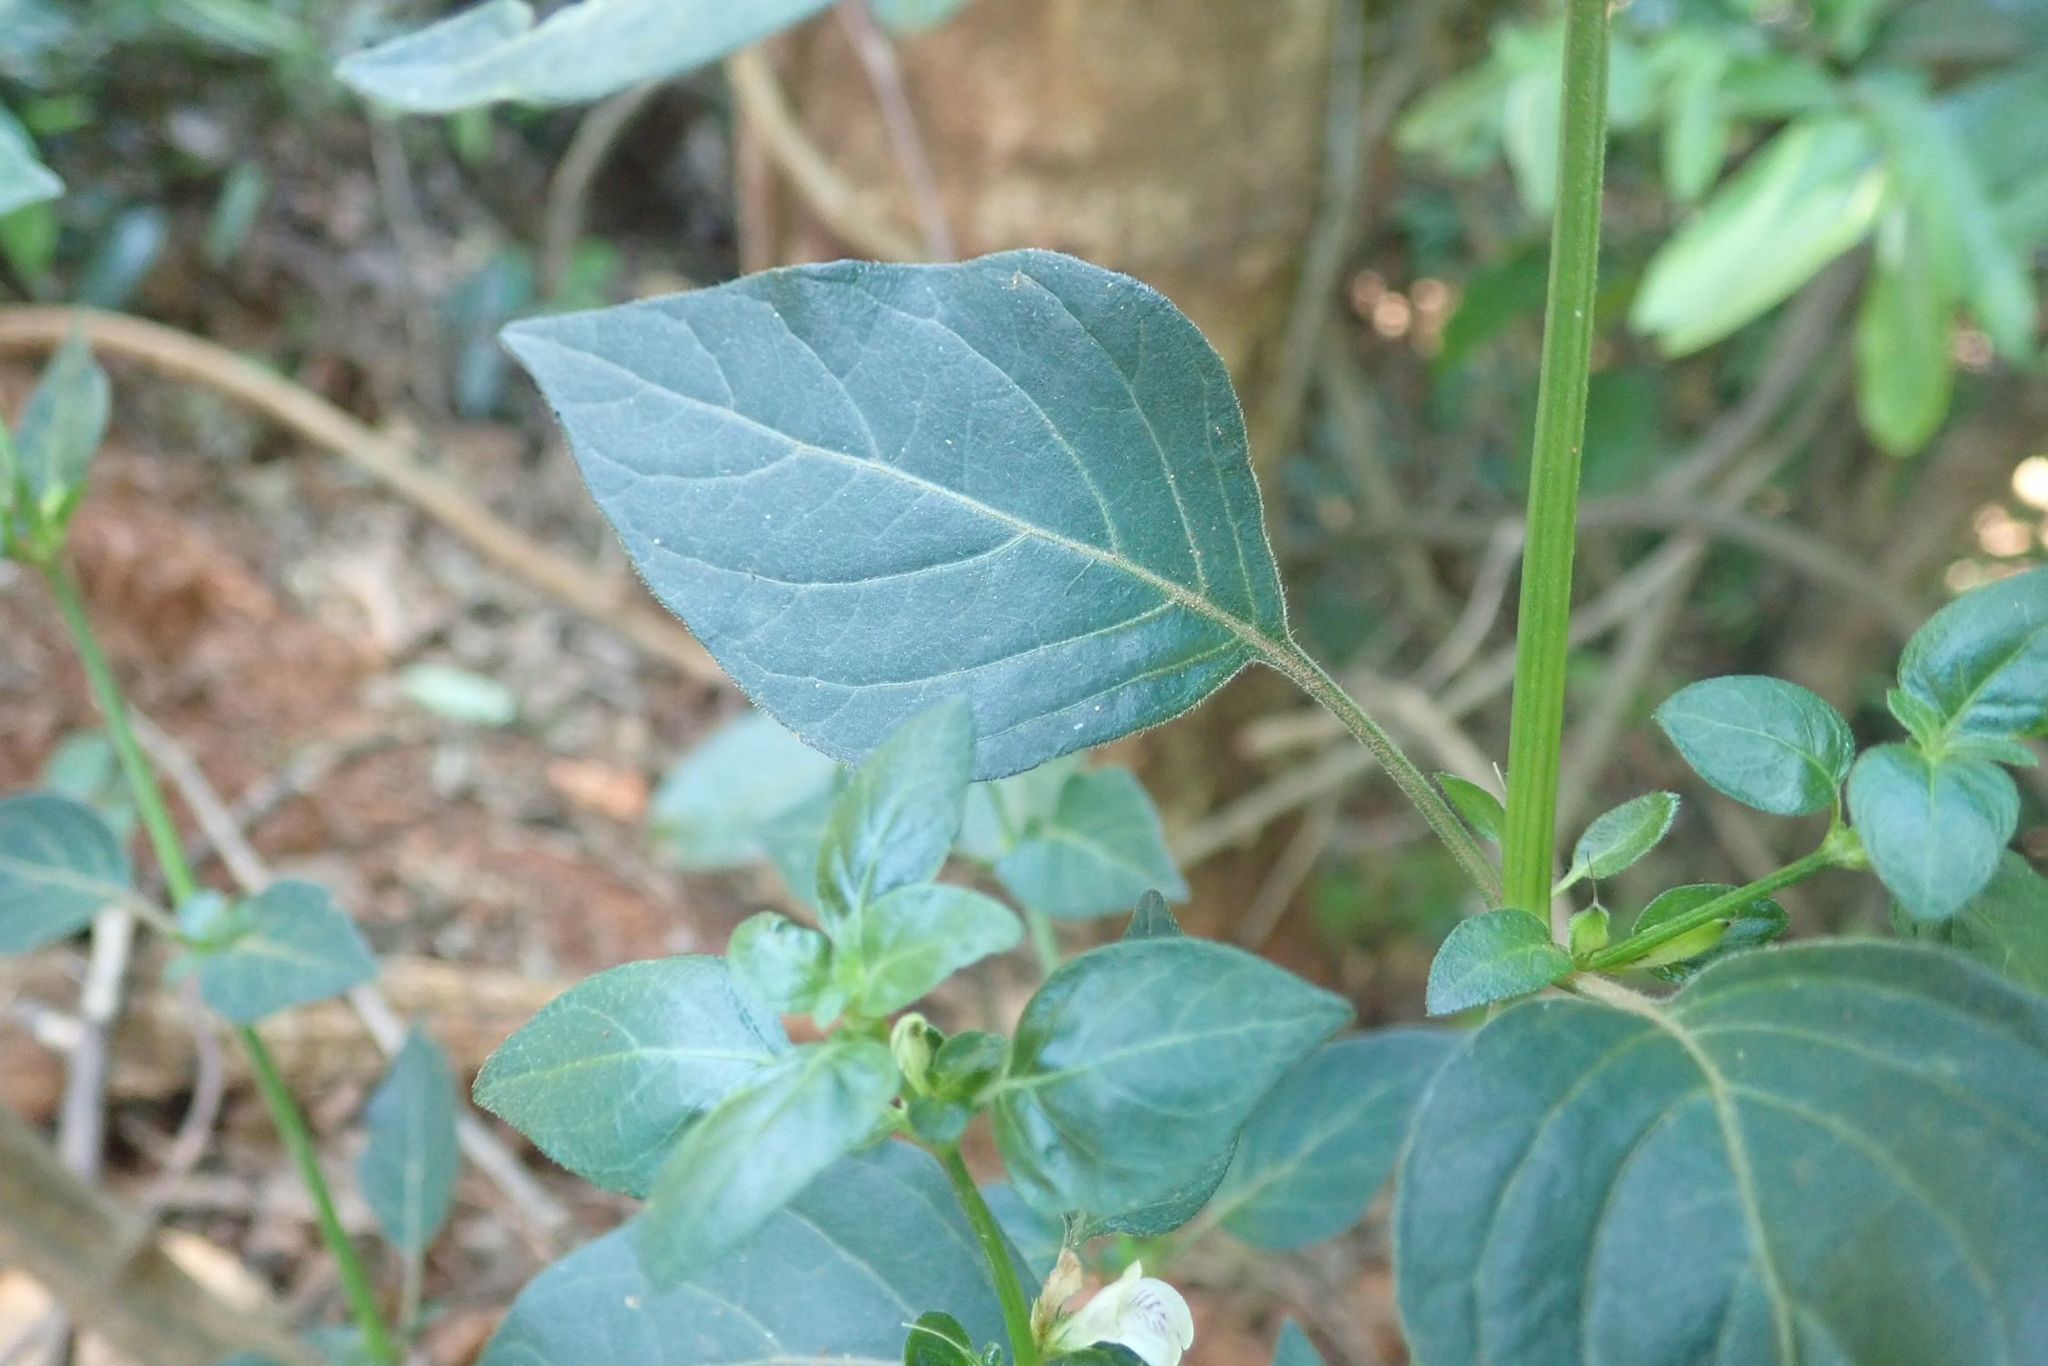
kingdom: Plantae
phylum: Tracheophyta
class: Magnoliopsida
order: Lamiales
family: Acanthaceae
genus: Justicia
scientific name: Justicia protracta
